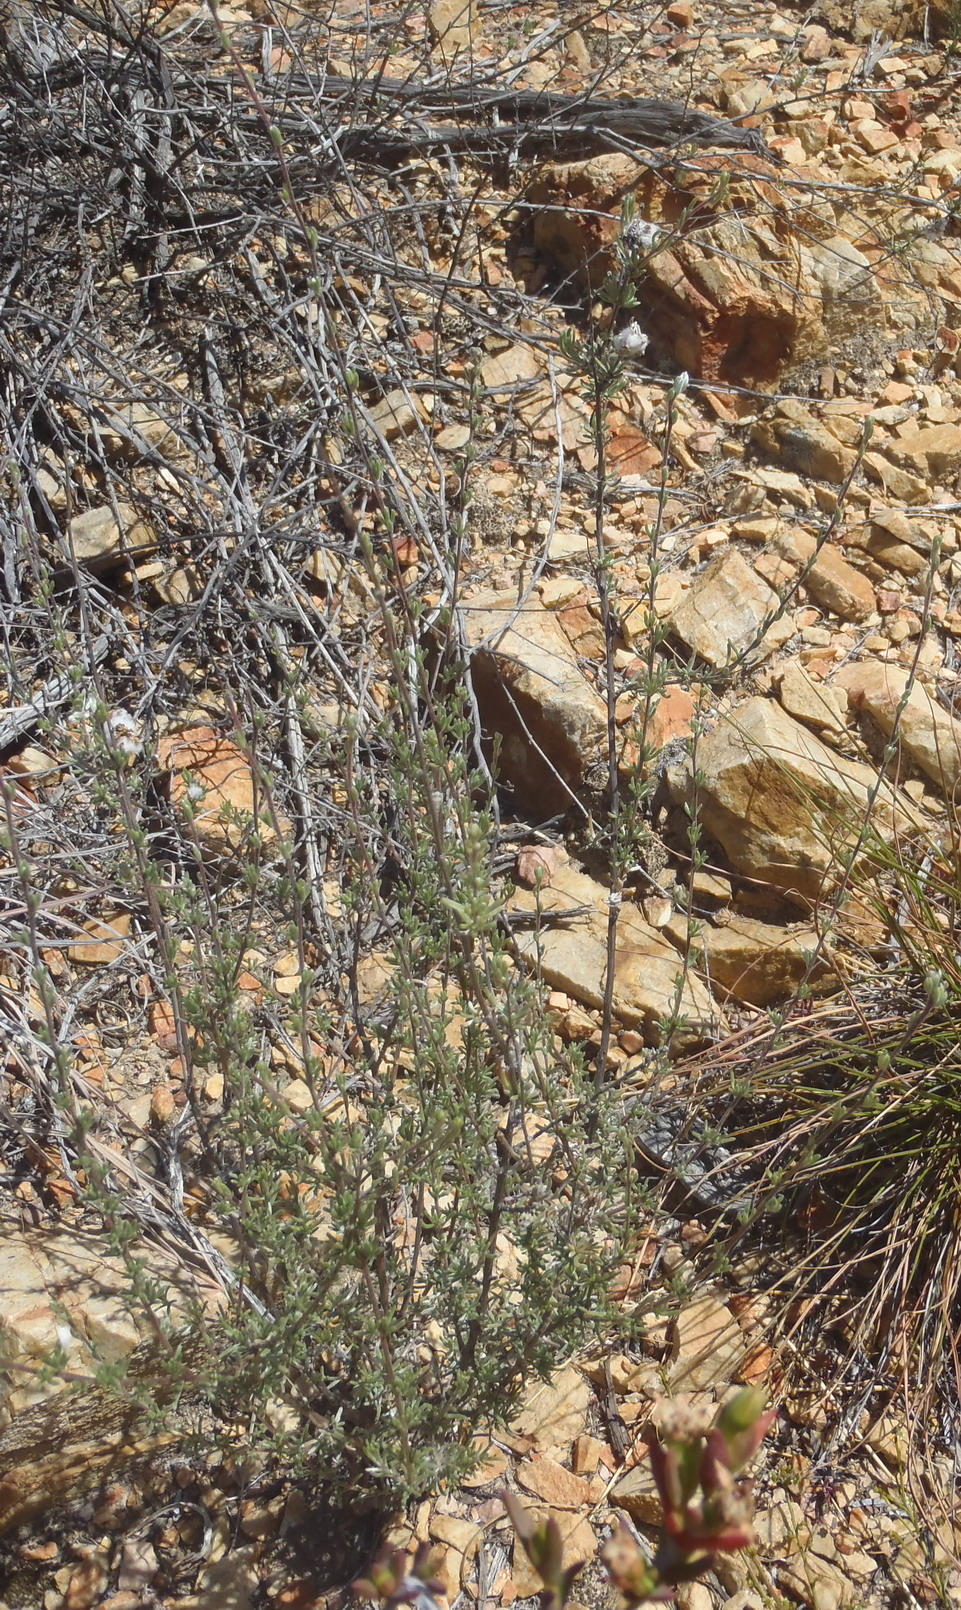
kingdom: Plantae
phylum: Tracheophyta
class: Magnoliopsida
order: Asterales
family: Asteraceae
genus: Eriocephalus
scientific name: Eriocephalus africanus
